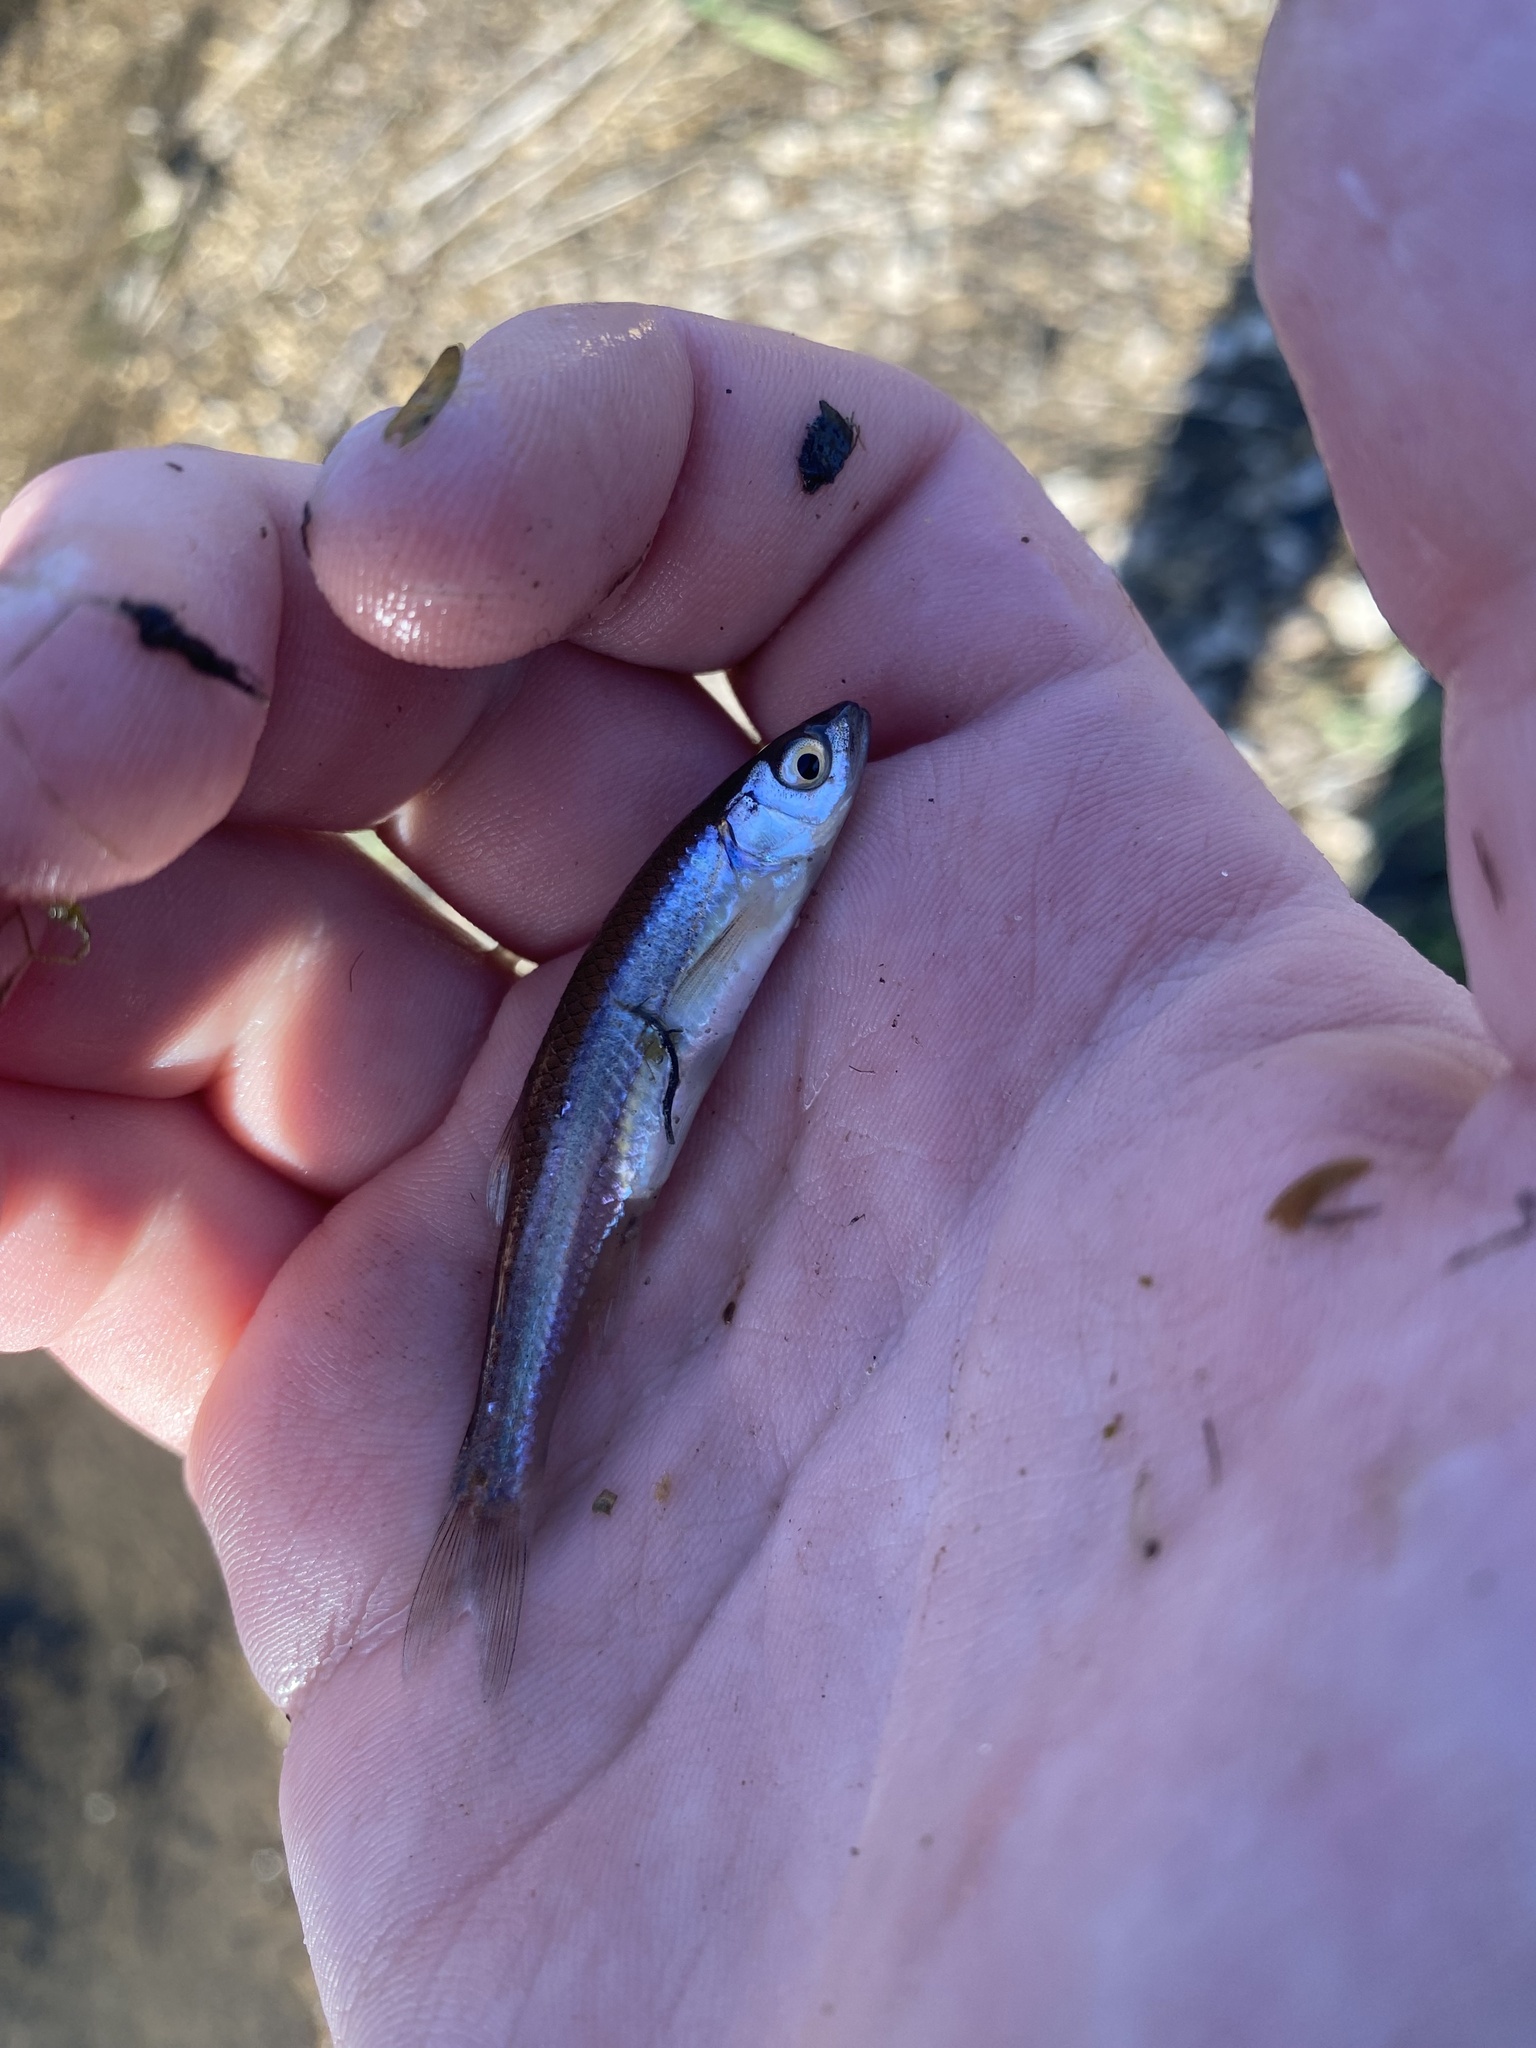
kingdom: Animalia
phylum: Chordata
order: Cypriniformes
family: Cyprinidae
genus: Notropis
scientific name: Notropis percobromus
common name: Carmine shiner
